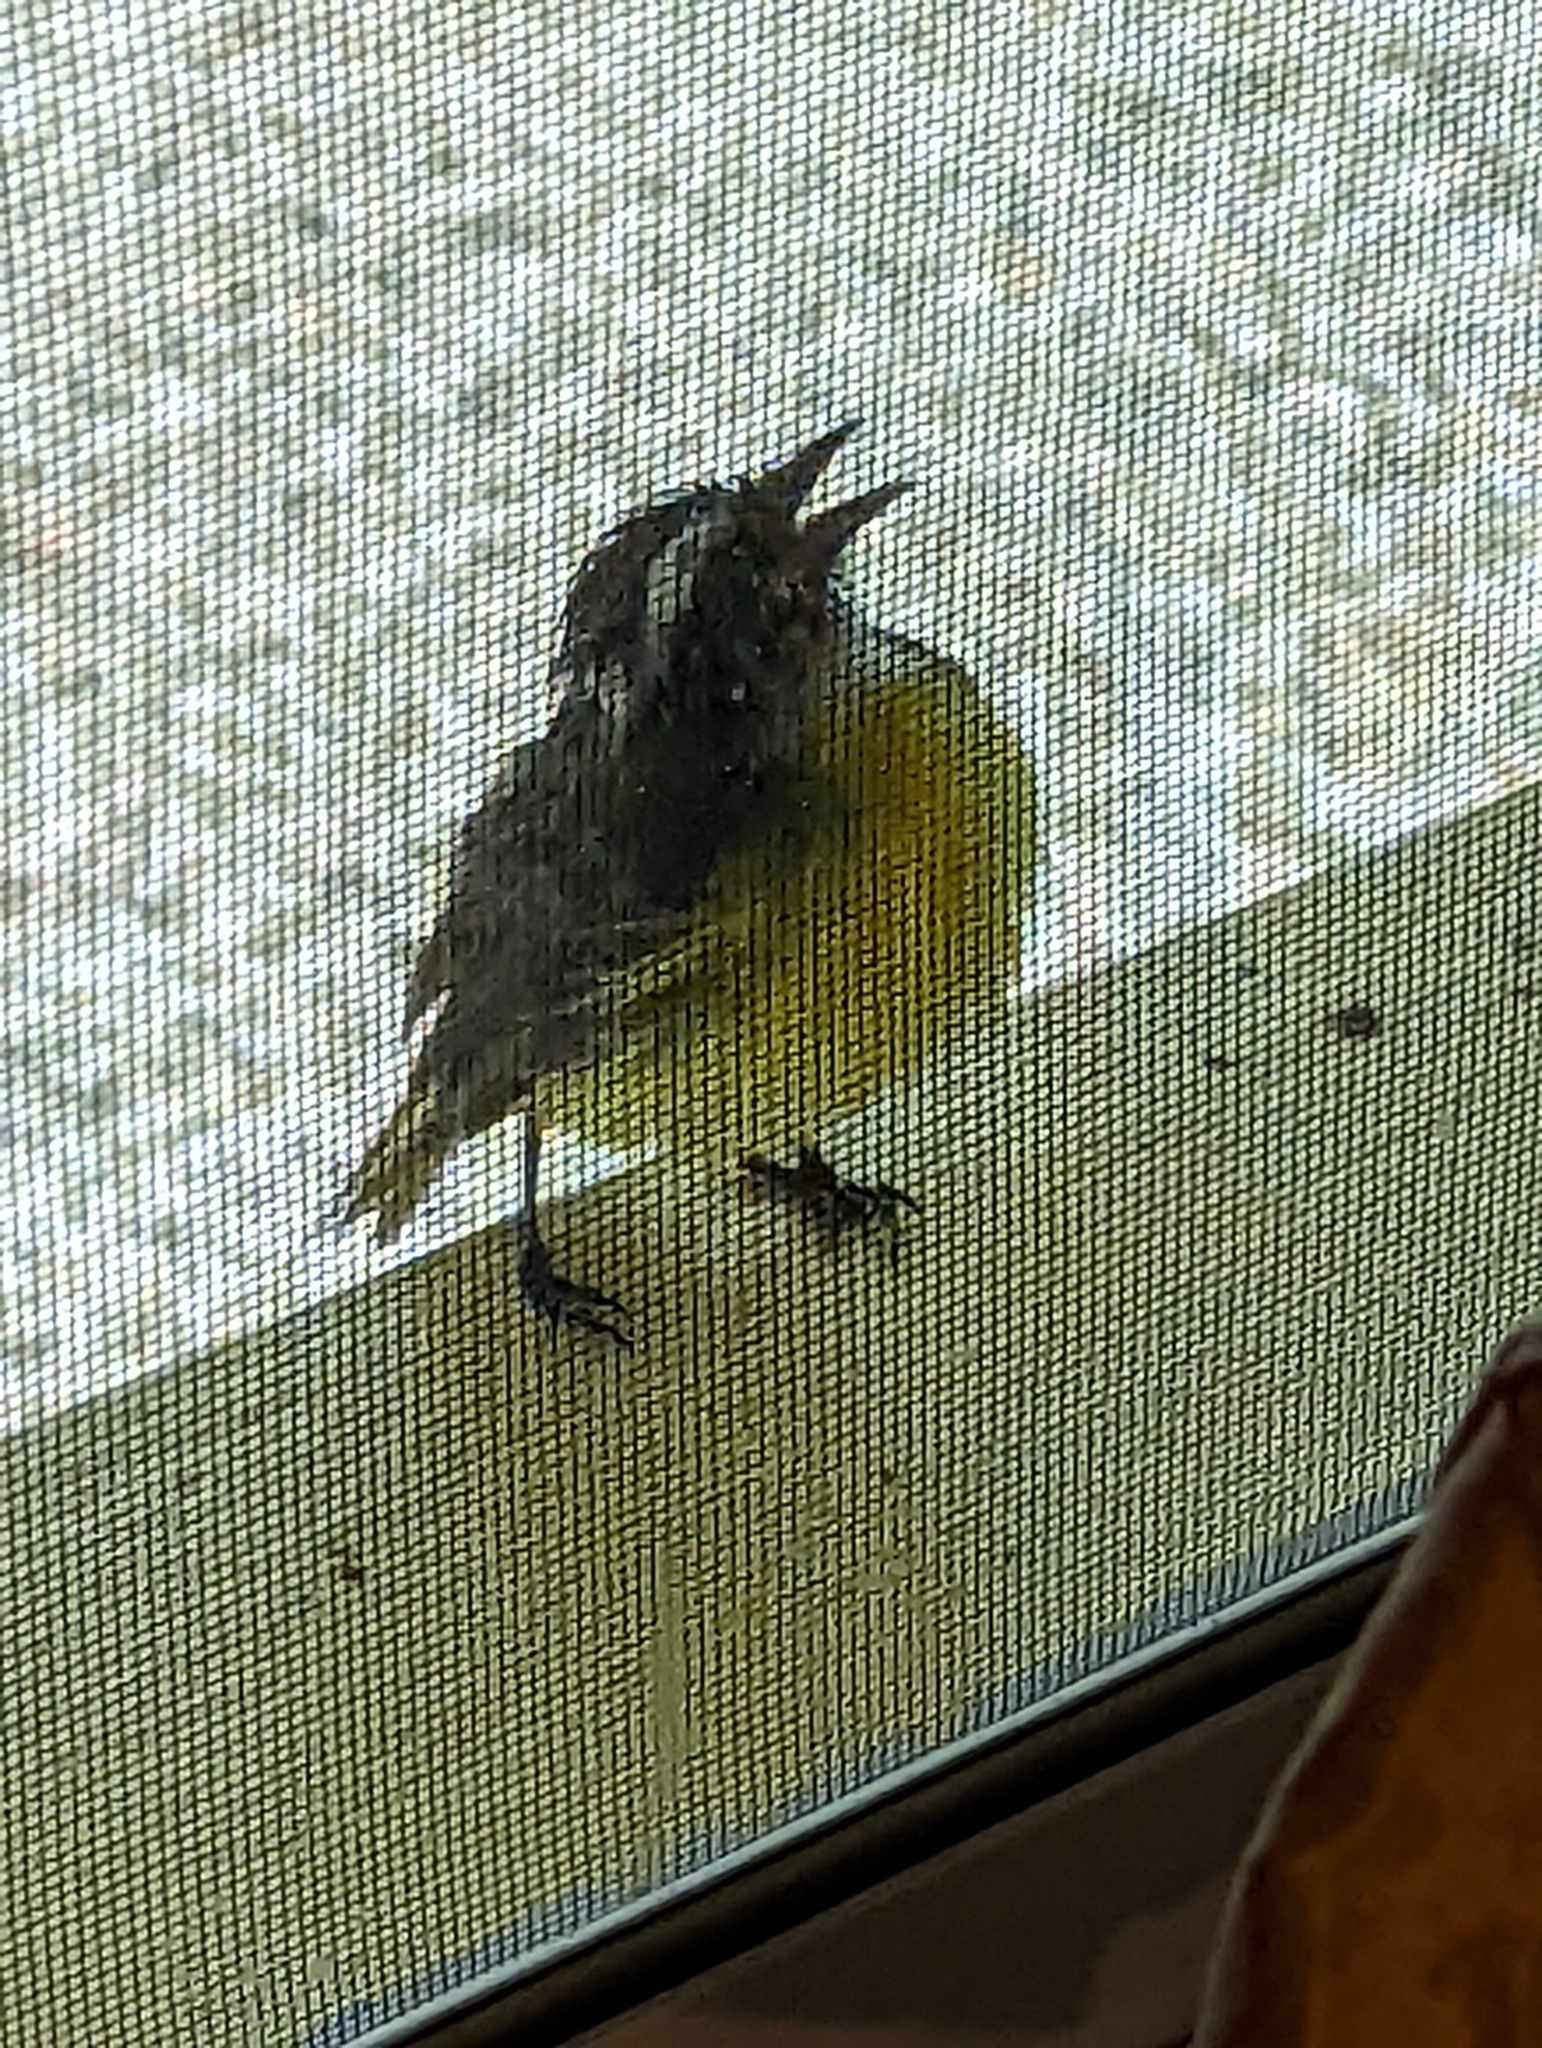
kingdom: Animalia
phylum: Chordata
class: Aves
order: Passeriformes
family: Tyrannidae
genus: Myiozetetes
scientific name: Myiozetetes similis
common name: Social flycatcher
